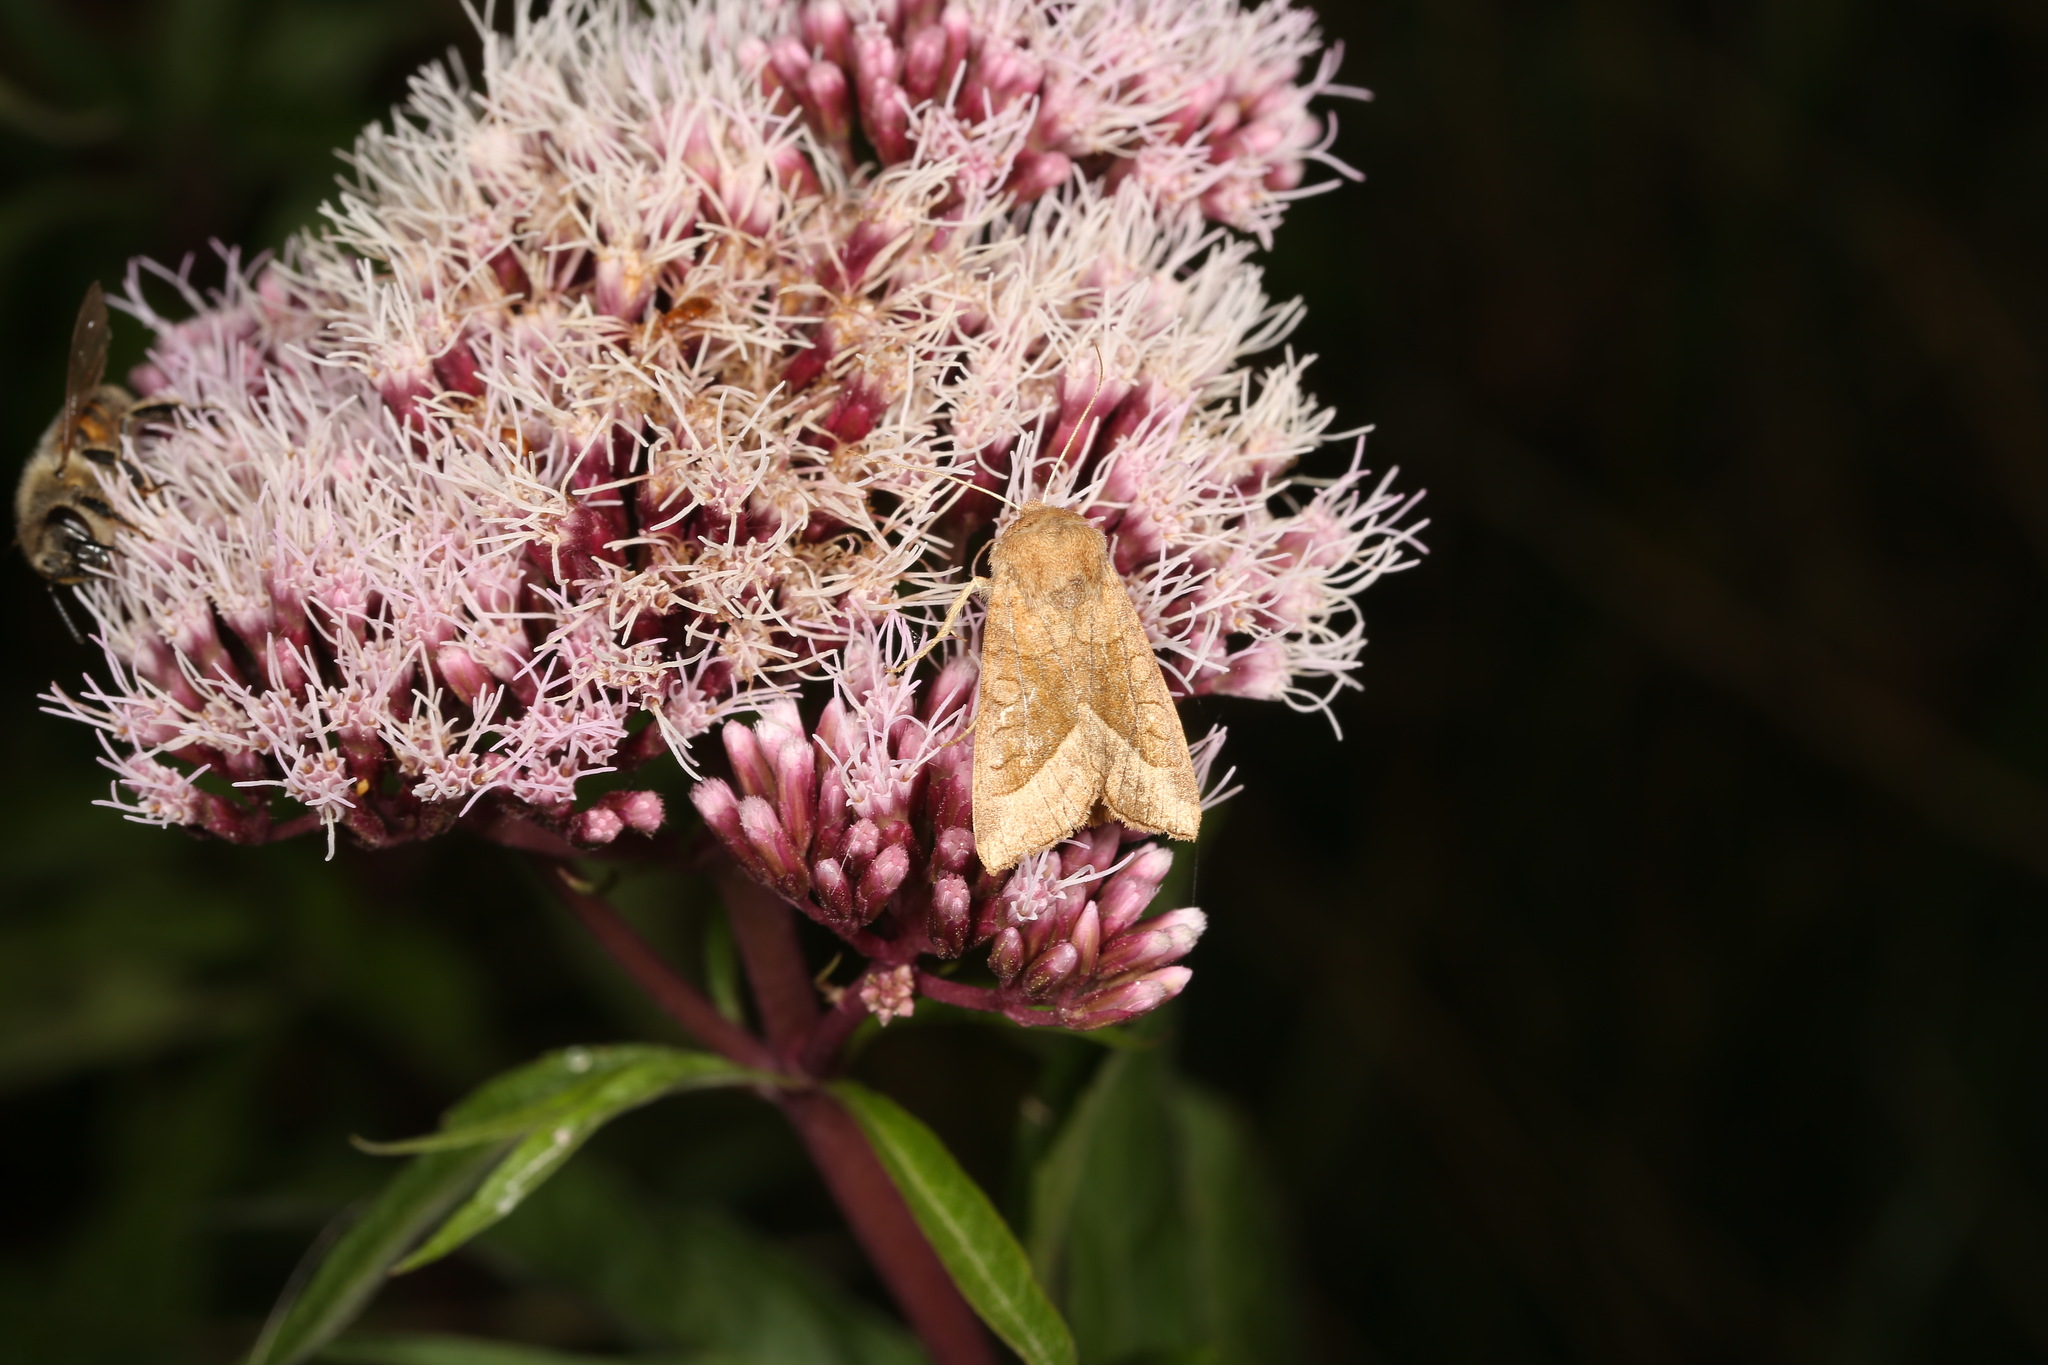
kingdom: Plantae
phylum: Tracheophyta
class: Magnoliopsida
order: Asterales
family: Asteraceae
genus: Eupatorium
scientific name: Eupatorium cannabinum
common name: Hemp-agrimony
